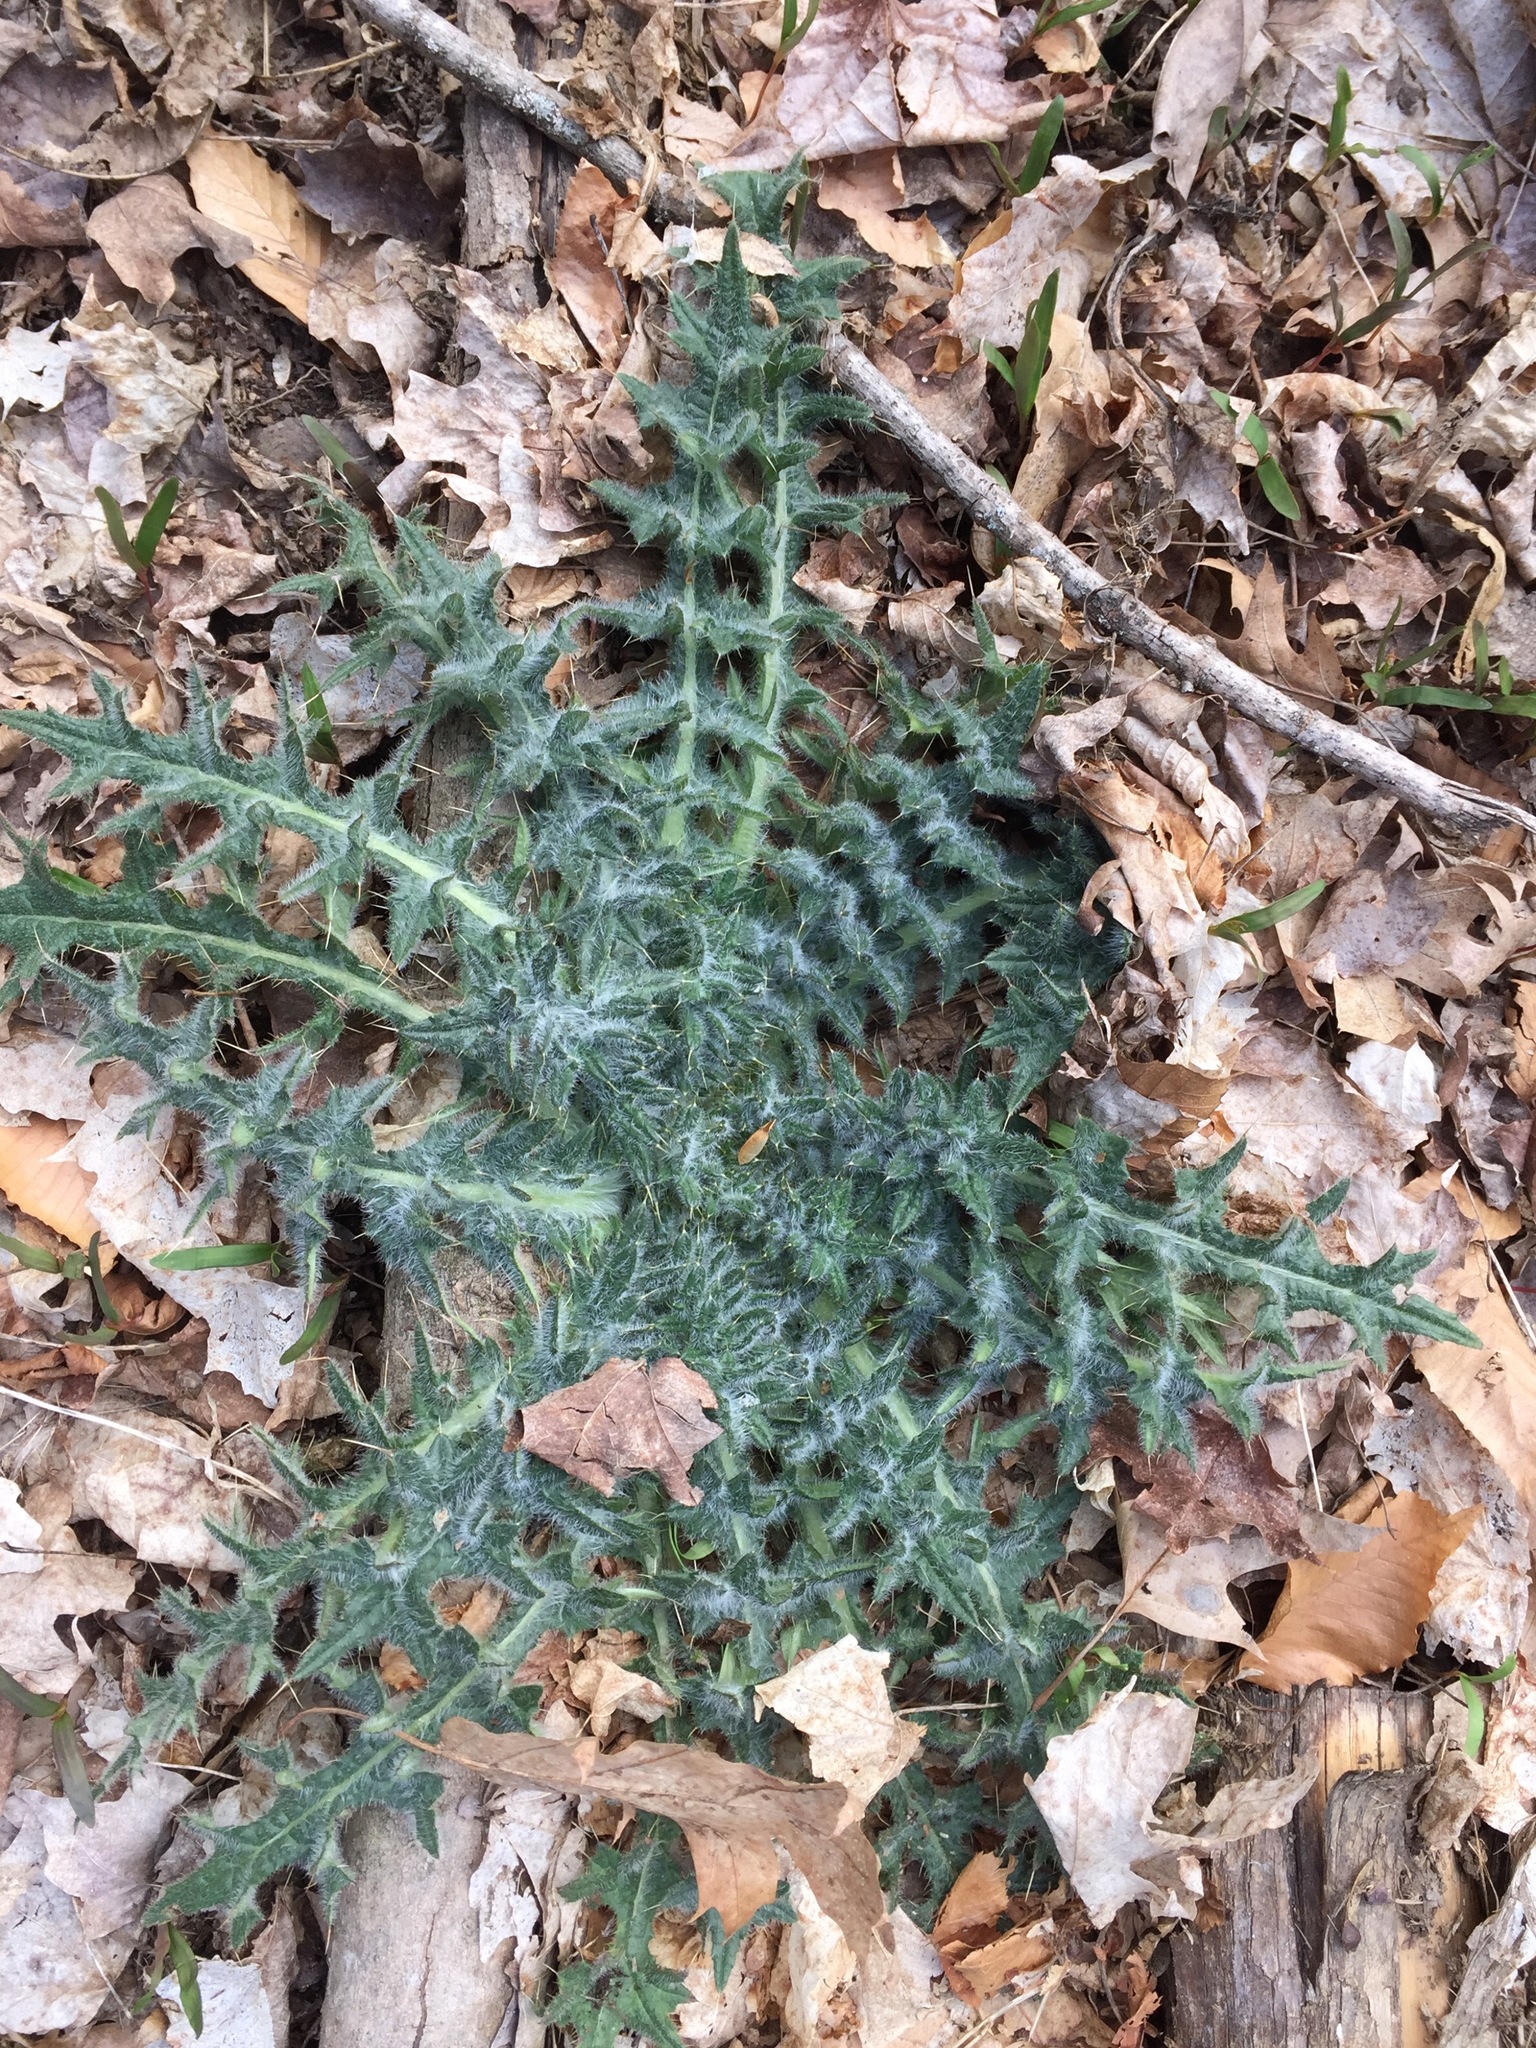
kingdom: Plantae
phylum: Tracheophyta
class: Magnoliopsida
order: Asterales
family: Asteraceae
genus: Cirsium
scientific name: Cirsium vulgare
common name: Bull thistle
